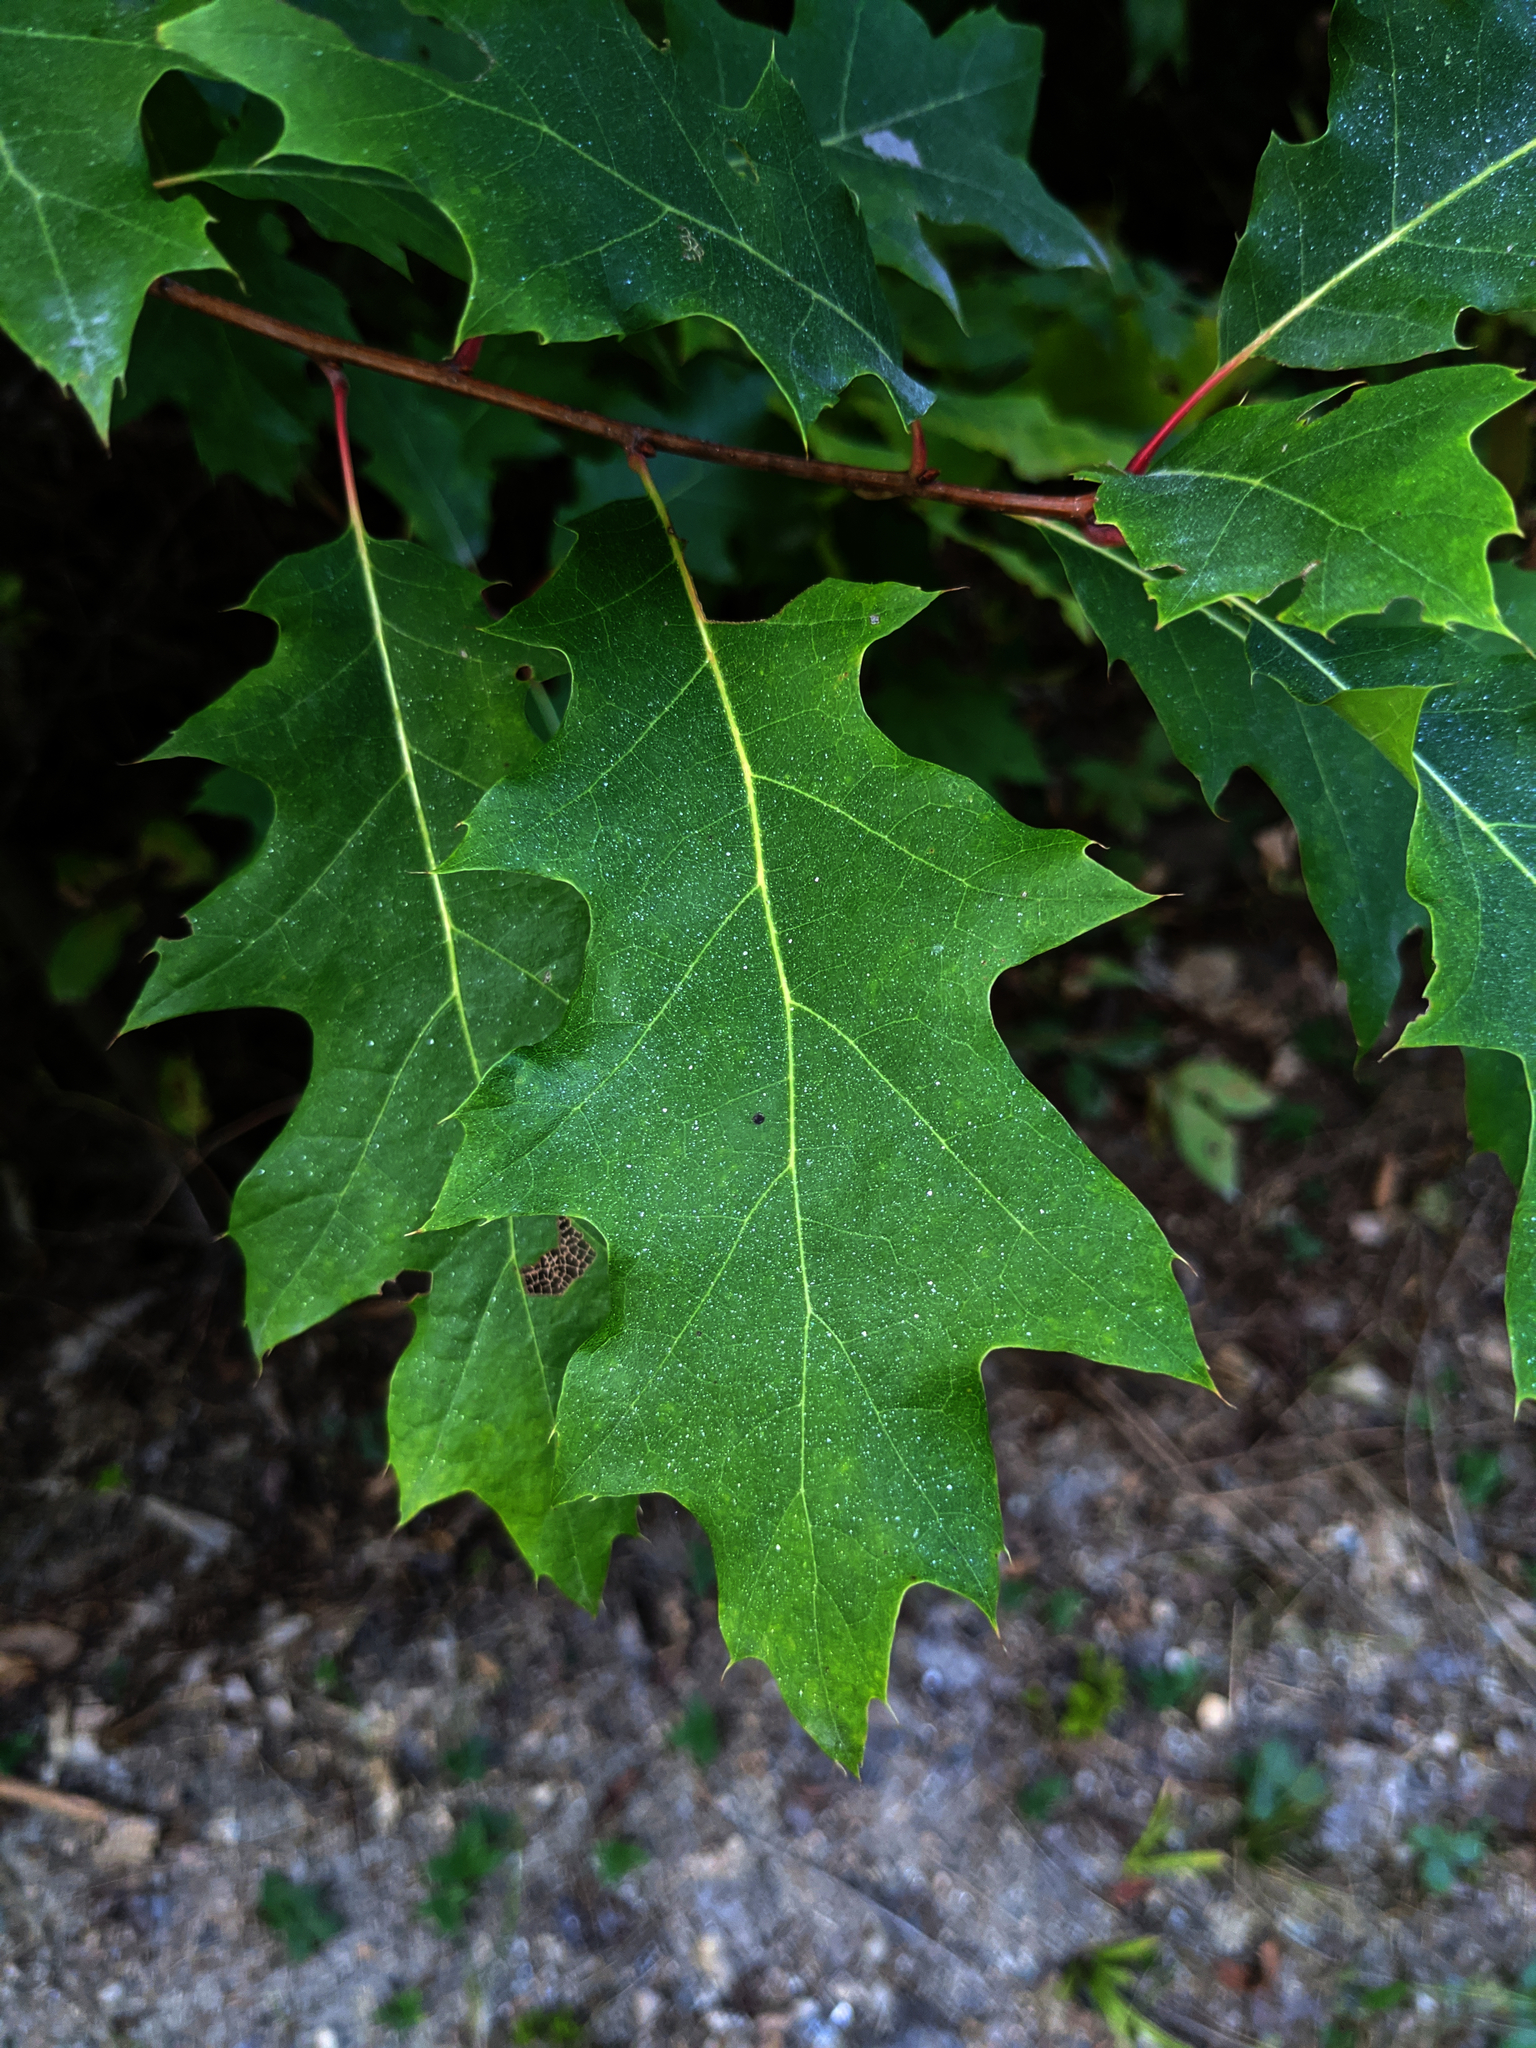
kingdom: Plantae
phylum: Tracheophyta
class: Magnoliopsida
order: Fagales
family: Fagaceae
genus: Quercus
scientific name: Quercus rubra
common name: Red oak
